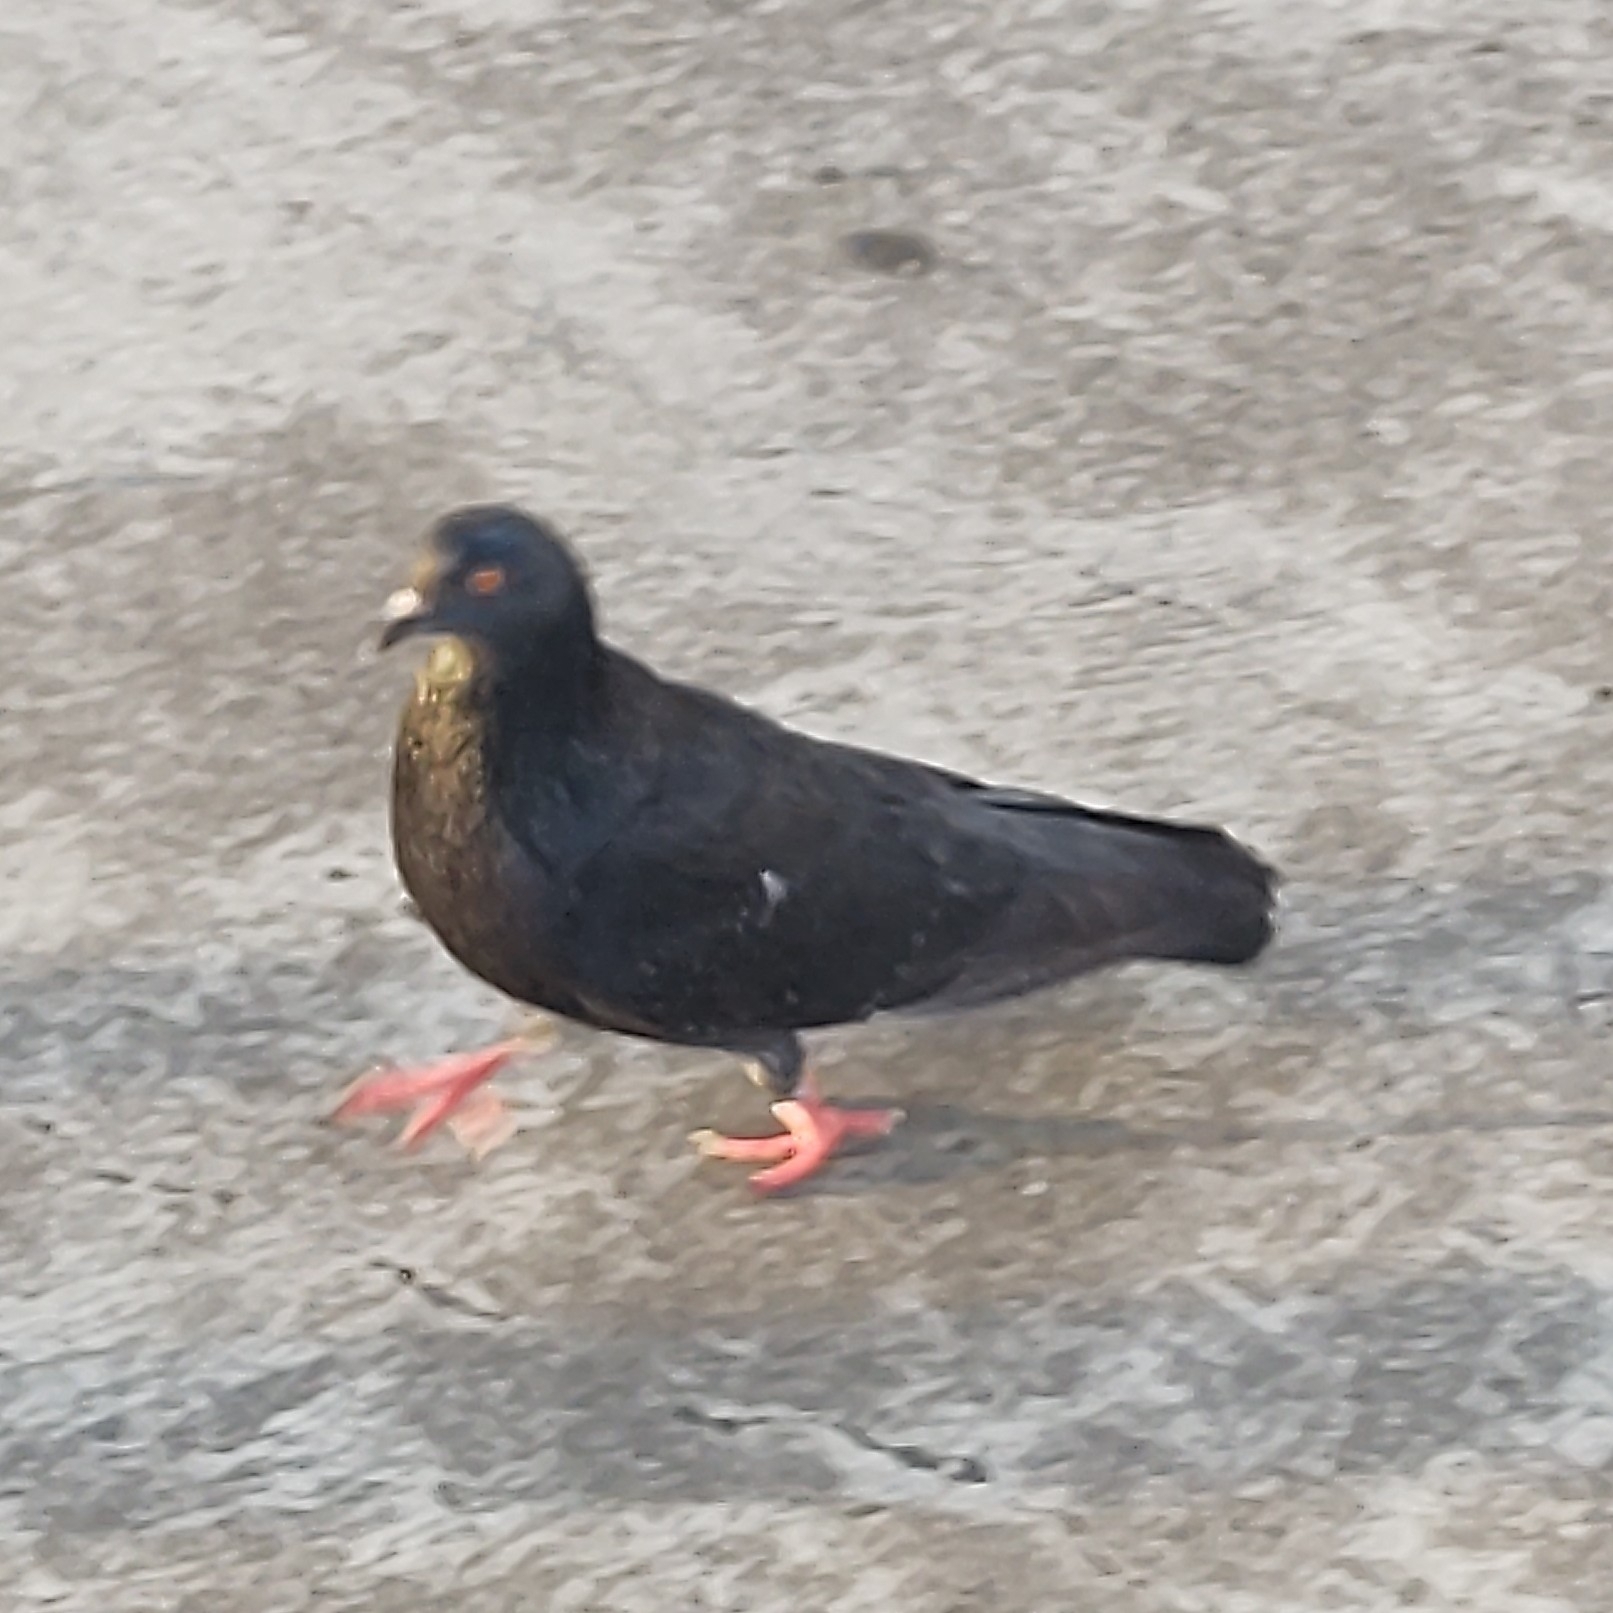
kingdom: Animalia
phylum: Chordata
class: Aves
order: Columbiformes
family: Columbidae
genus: Columba
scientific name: Columba livia
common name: Rock pigeon
